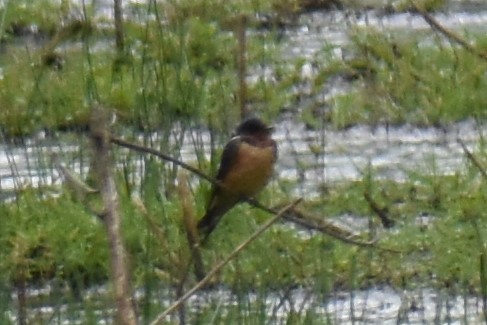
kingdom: Animalia
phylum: Chordata
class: Aves
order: Passeriformes
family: Hirundinidae
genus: Hirundo
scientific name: Hirundo rustica
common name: Barn swallow
